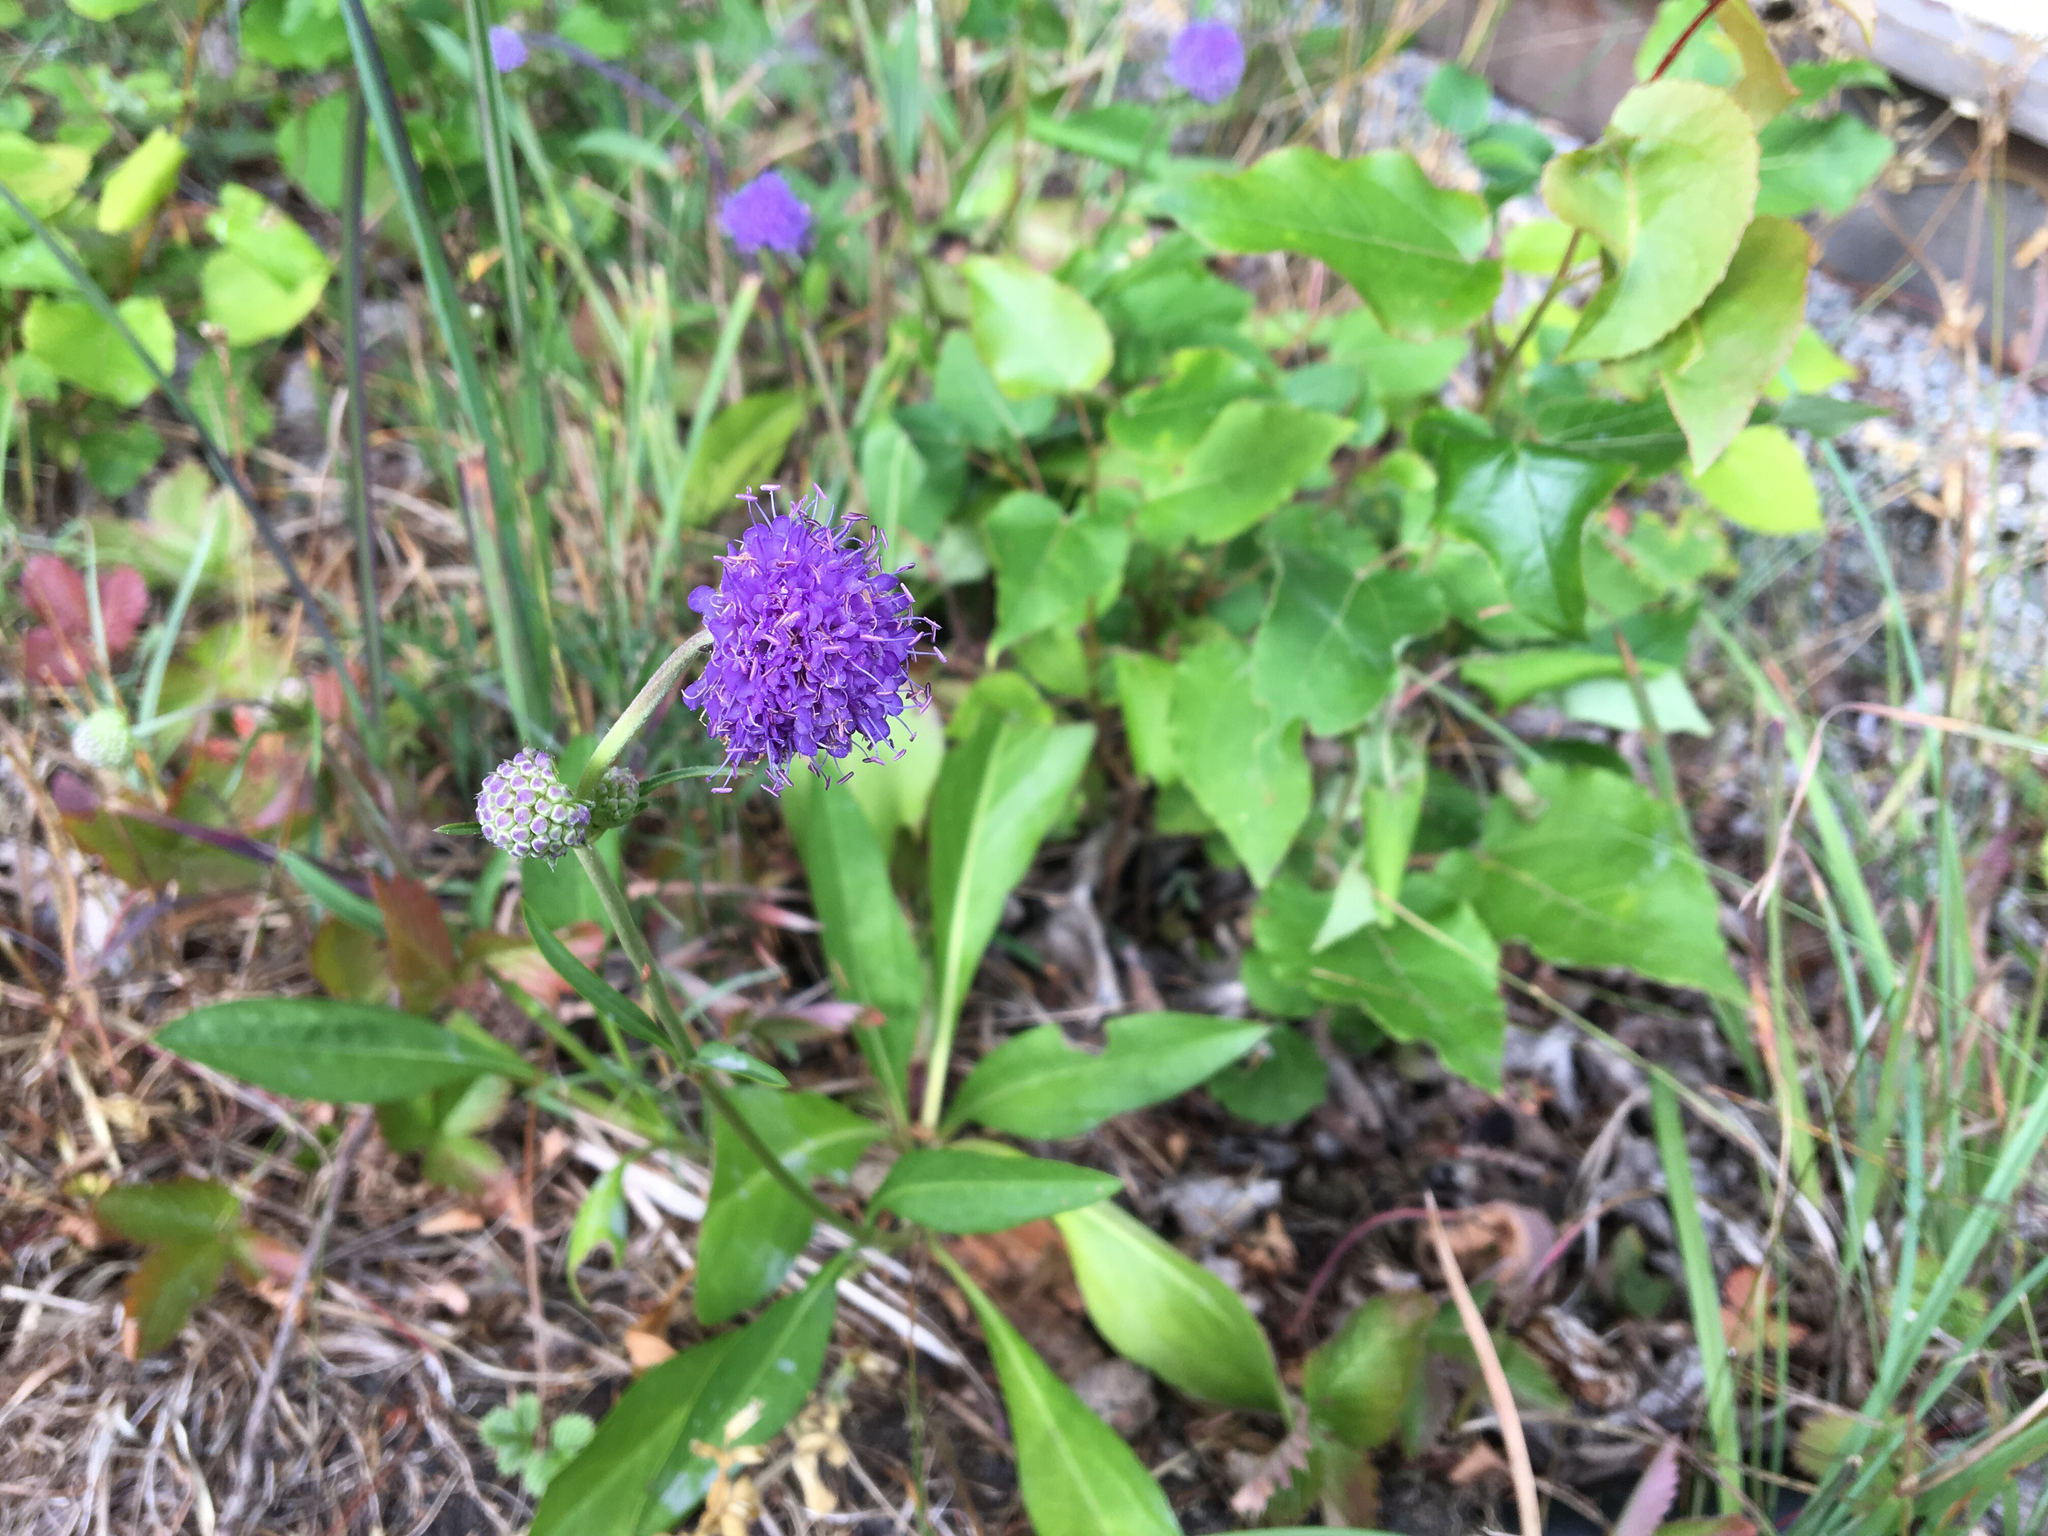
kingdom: Plantae
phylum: Tracheophyta
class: Magnoliopsida
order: Dipsacales
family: Caprifoliaceae
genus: Succisa
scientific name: Succisa pratensis
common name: Devil's-bit
